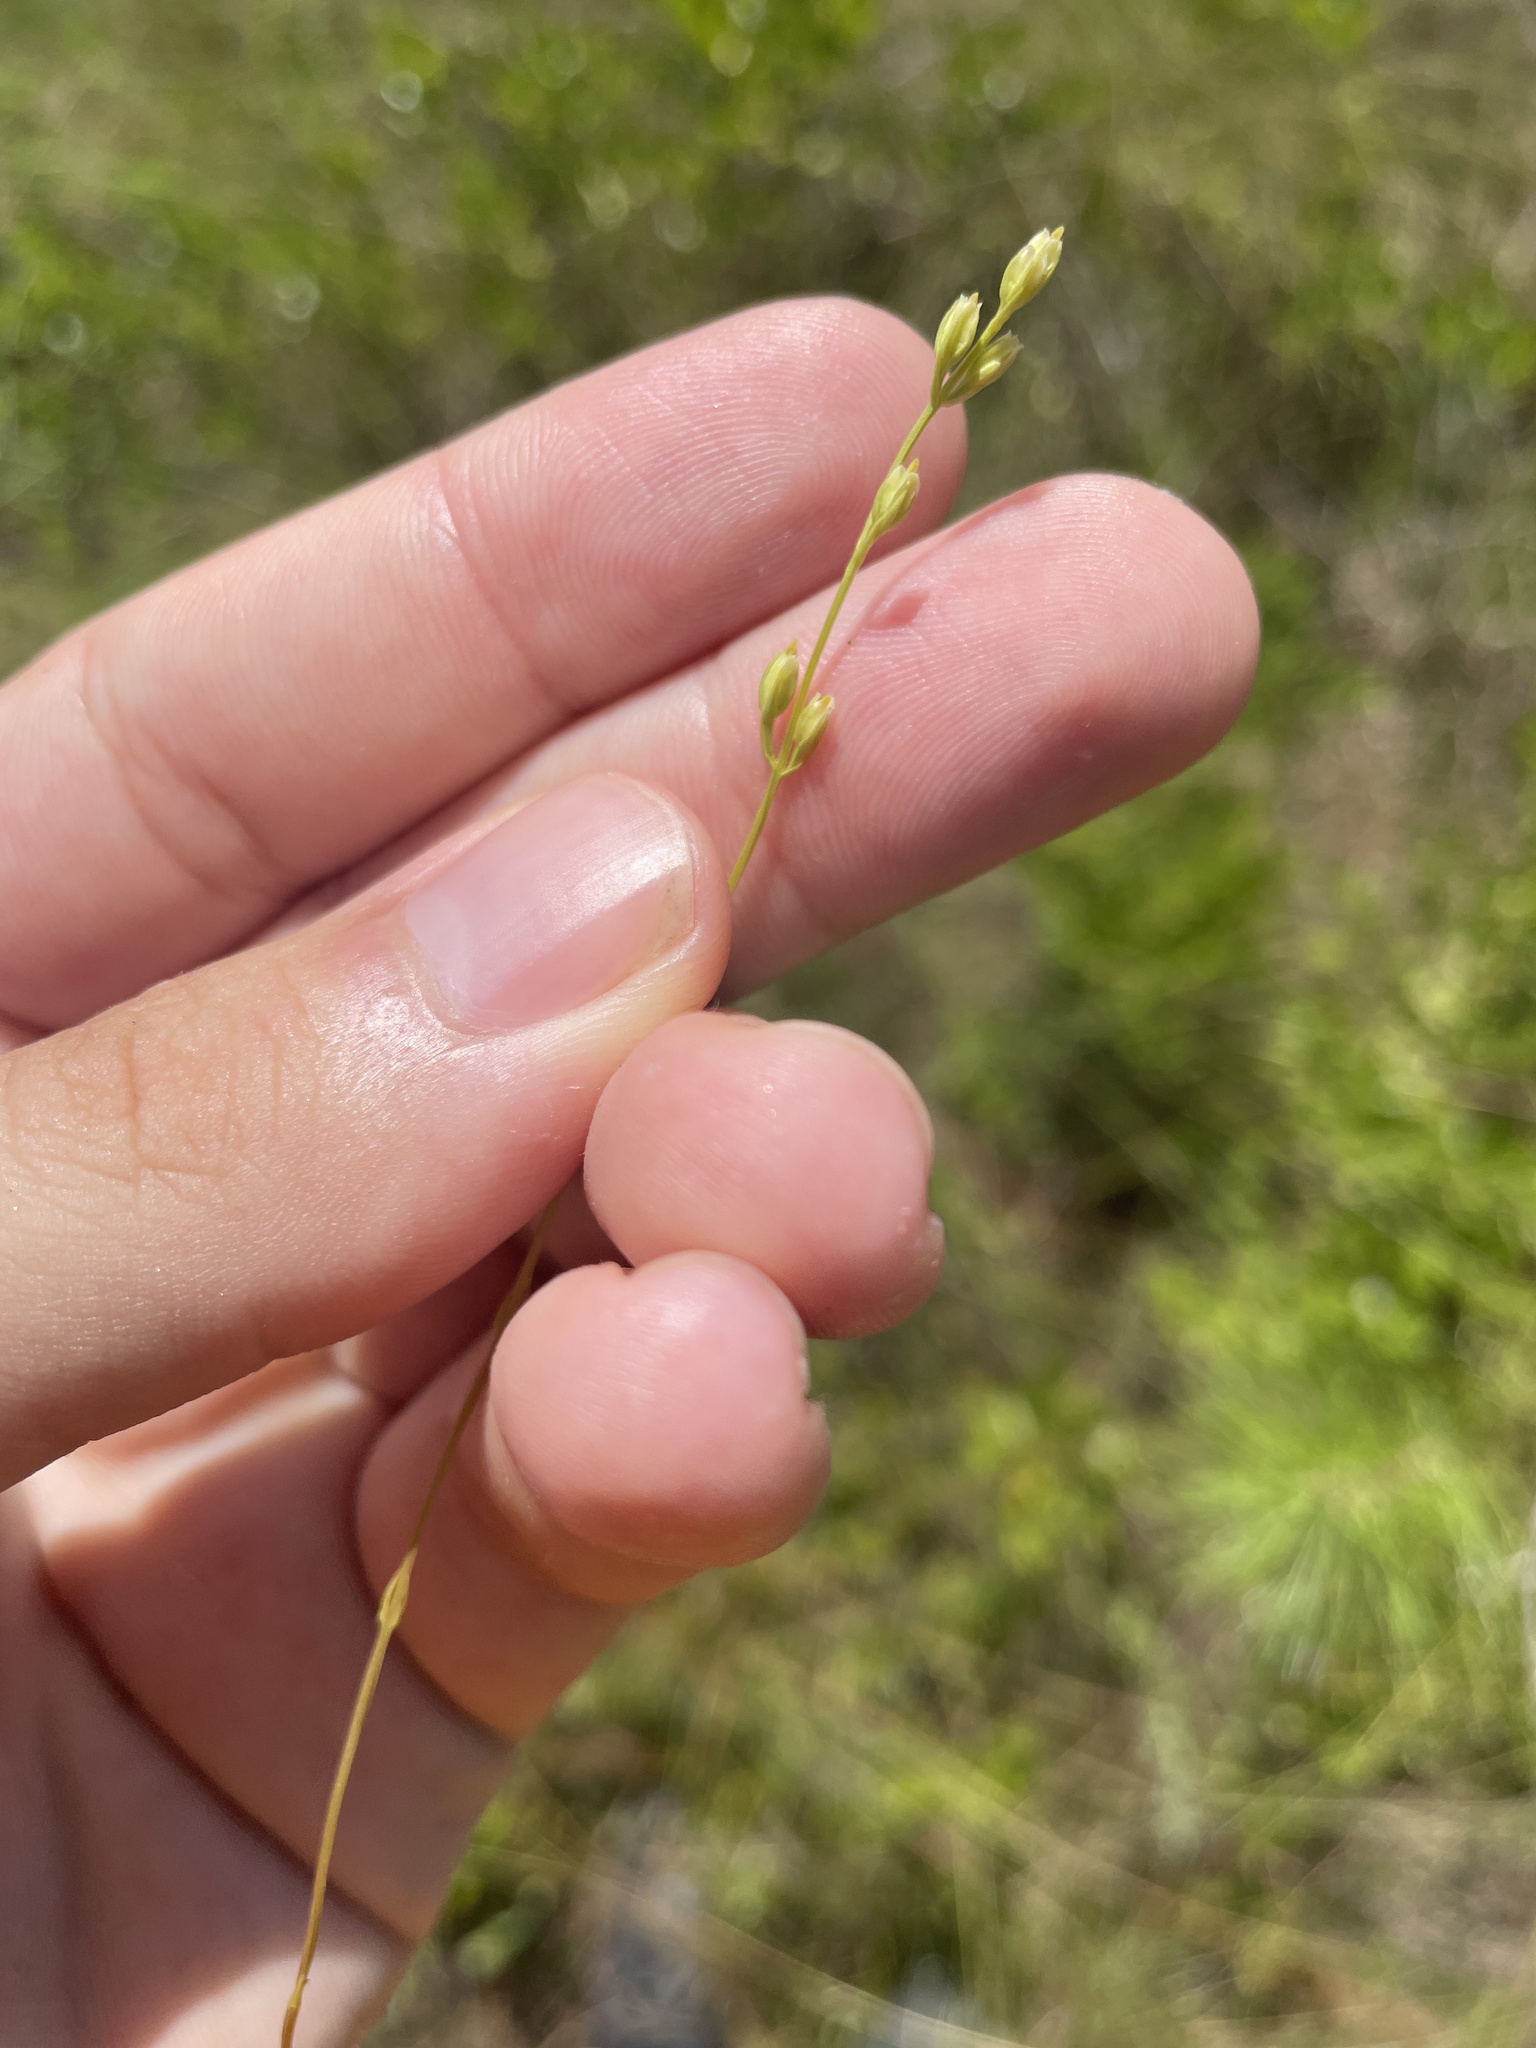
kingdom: Plantae
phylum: Tracheophyta
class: Magnoliopsida
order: Gentianales
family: Gentianaceae
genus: Bartonia
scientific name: Bartonia virginica
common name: Yellow bartonia
